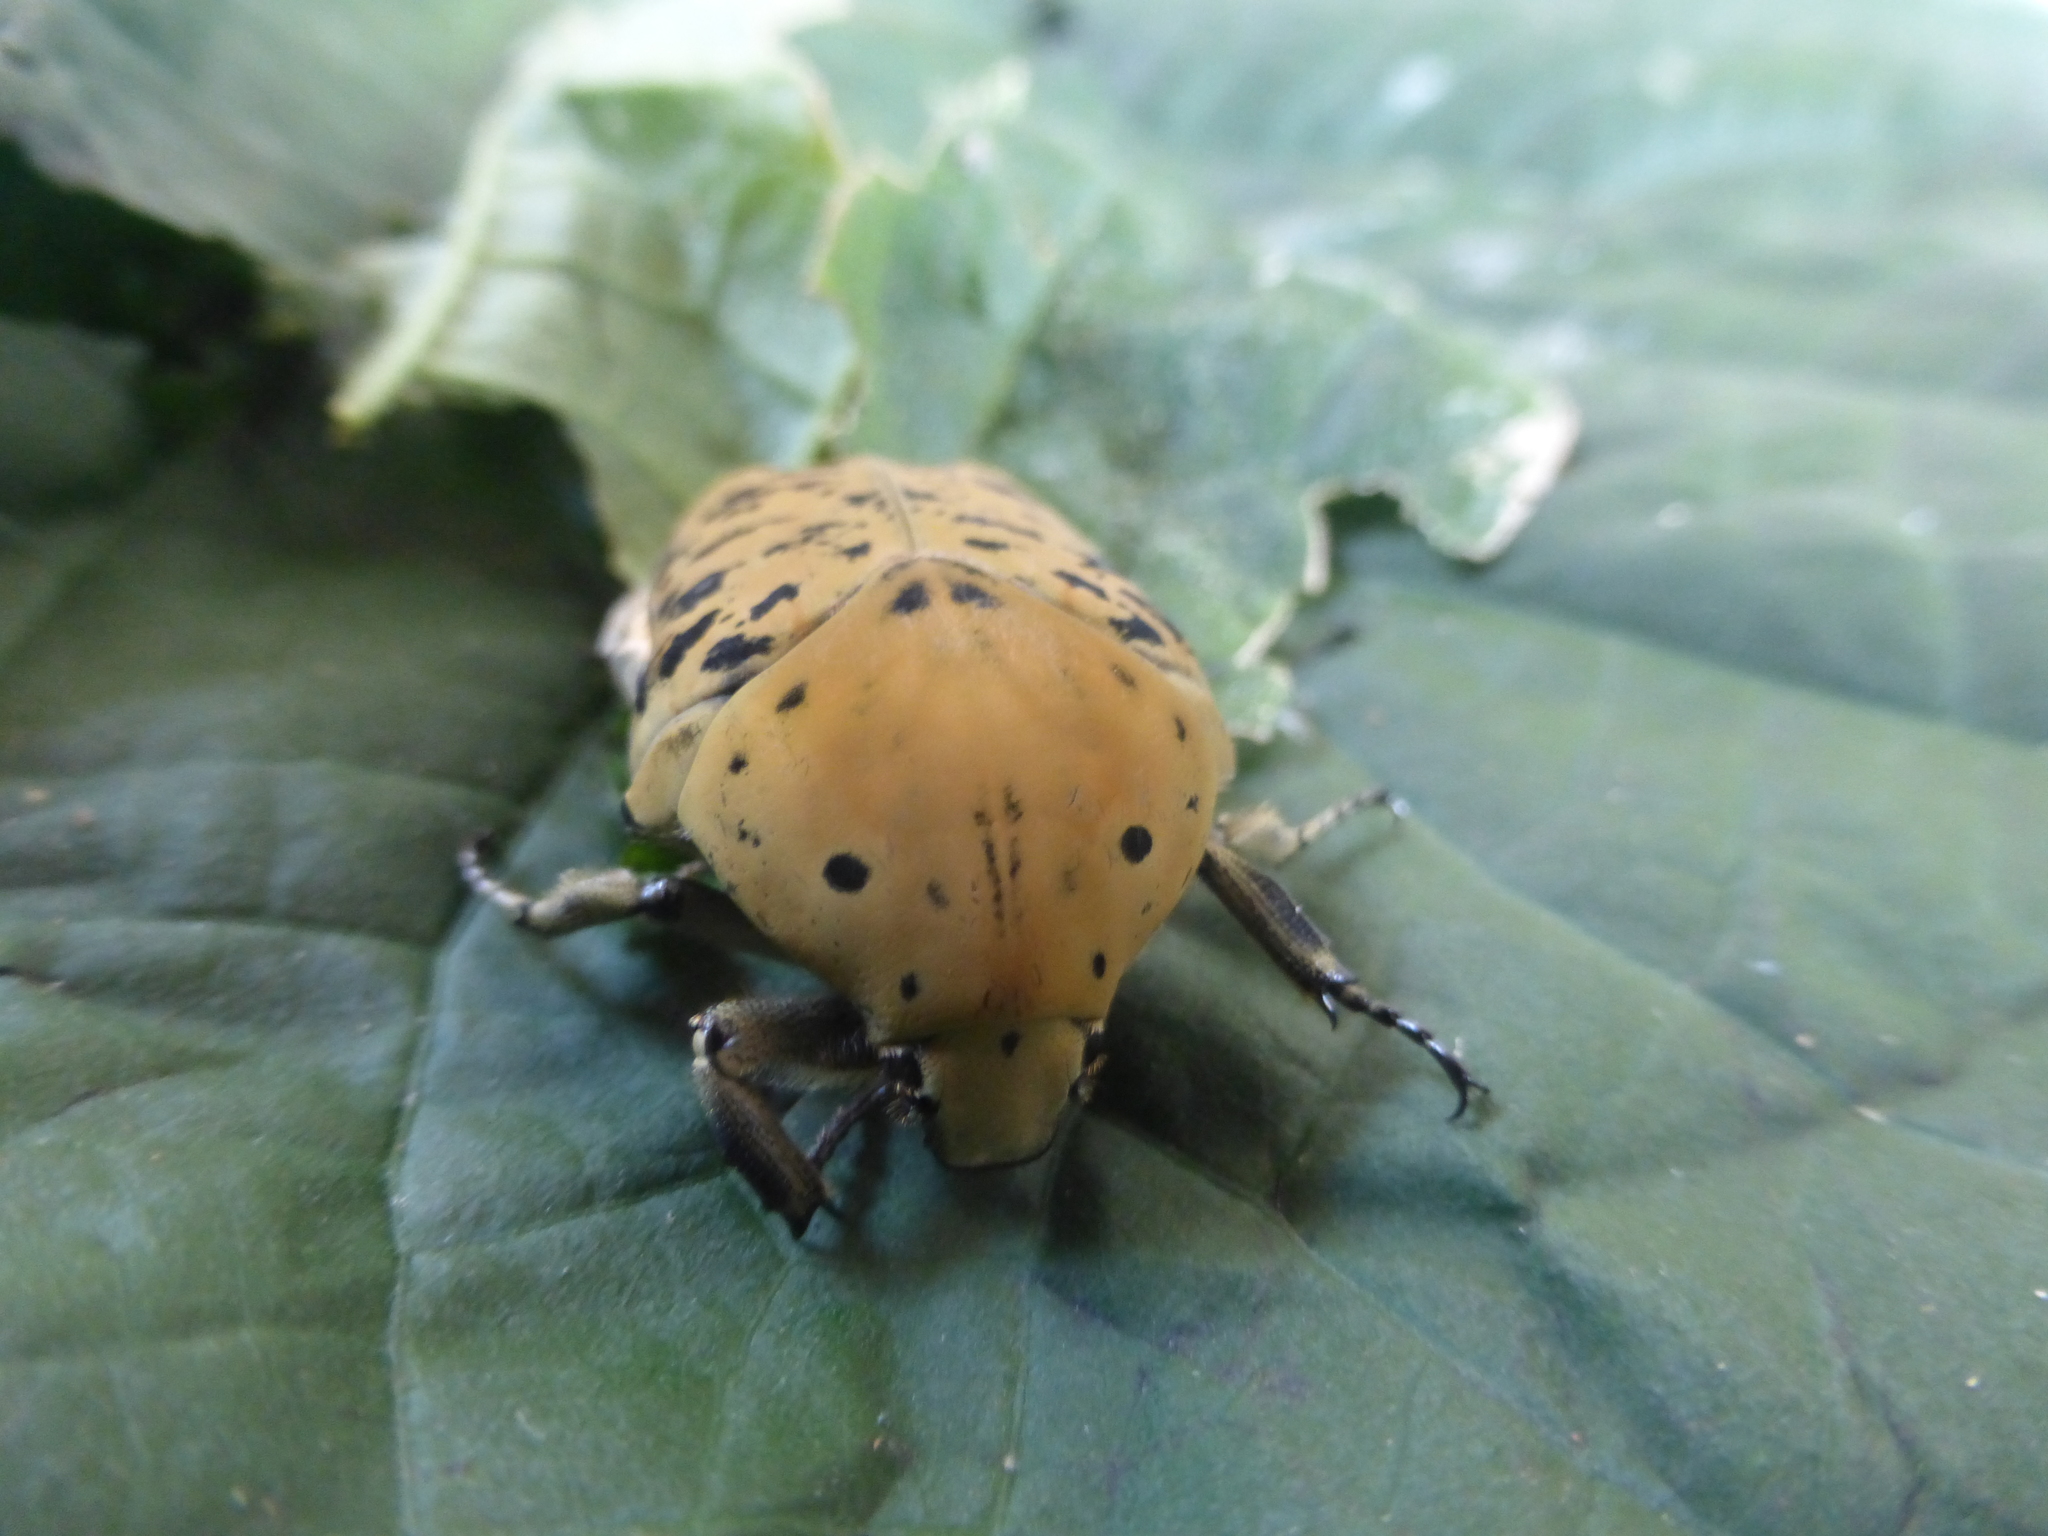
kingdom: Animalia
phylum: Arthropoda
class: Insecta
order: Coleoptera
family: Scarabaeidae
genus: Gymnetis
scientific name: Gymnetis bajula
